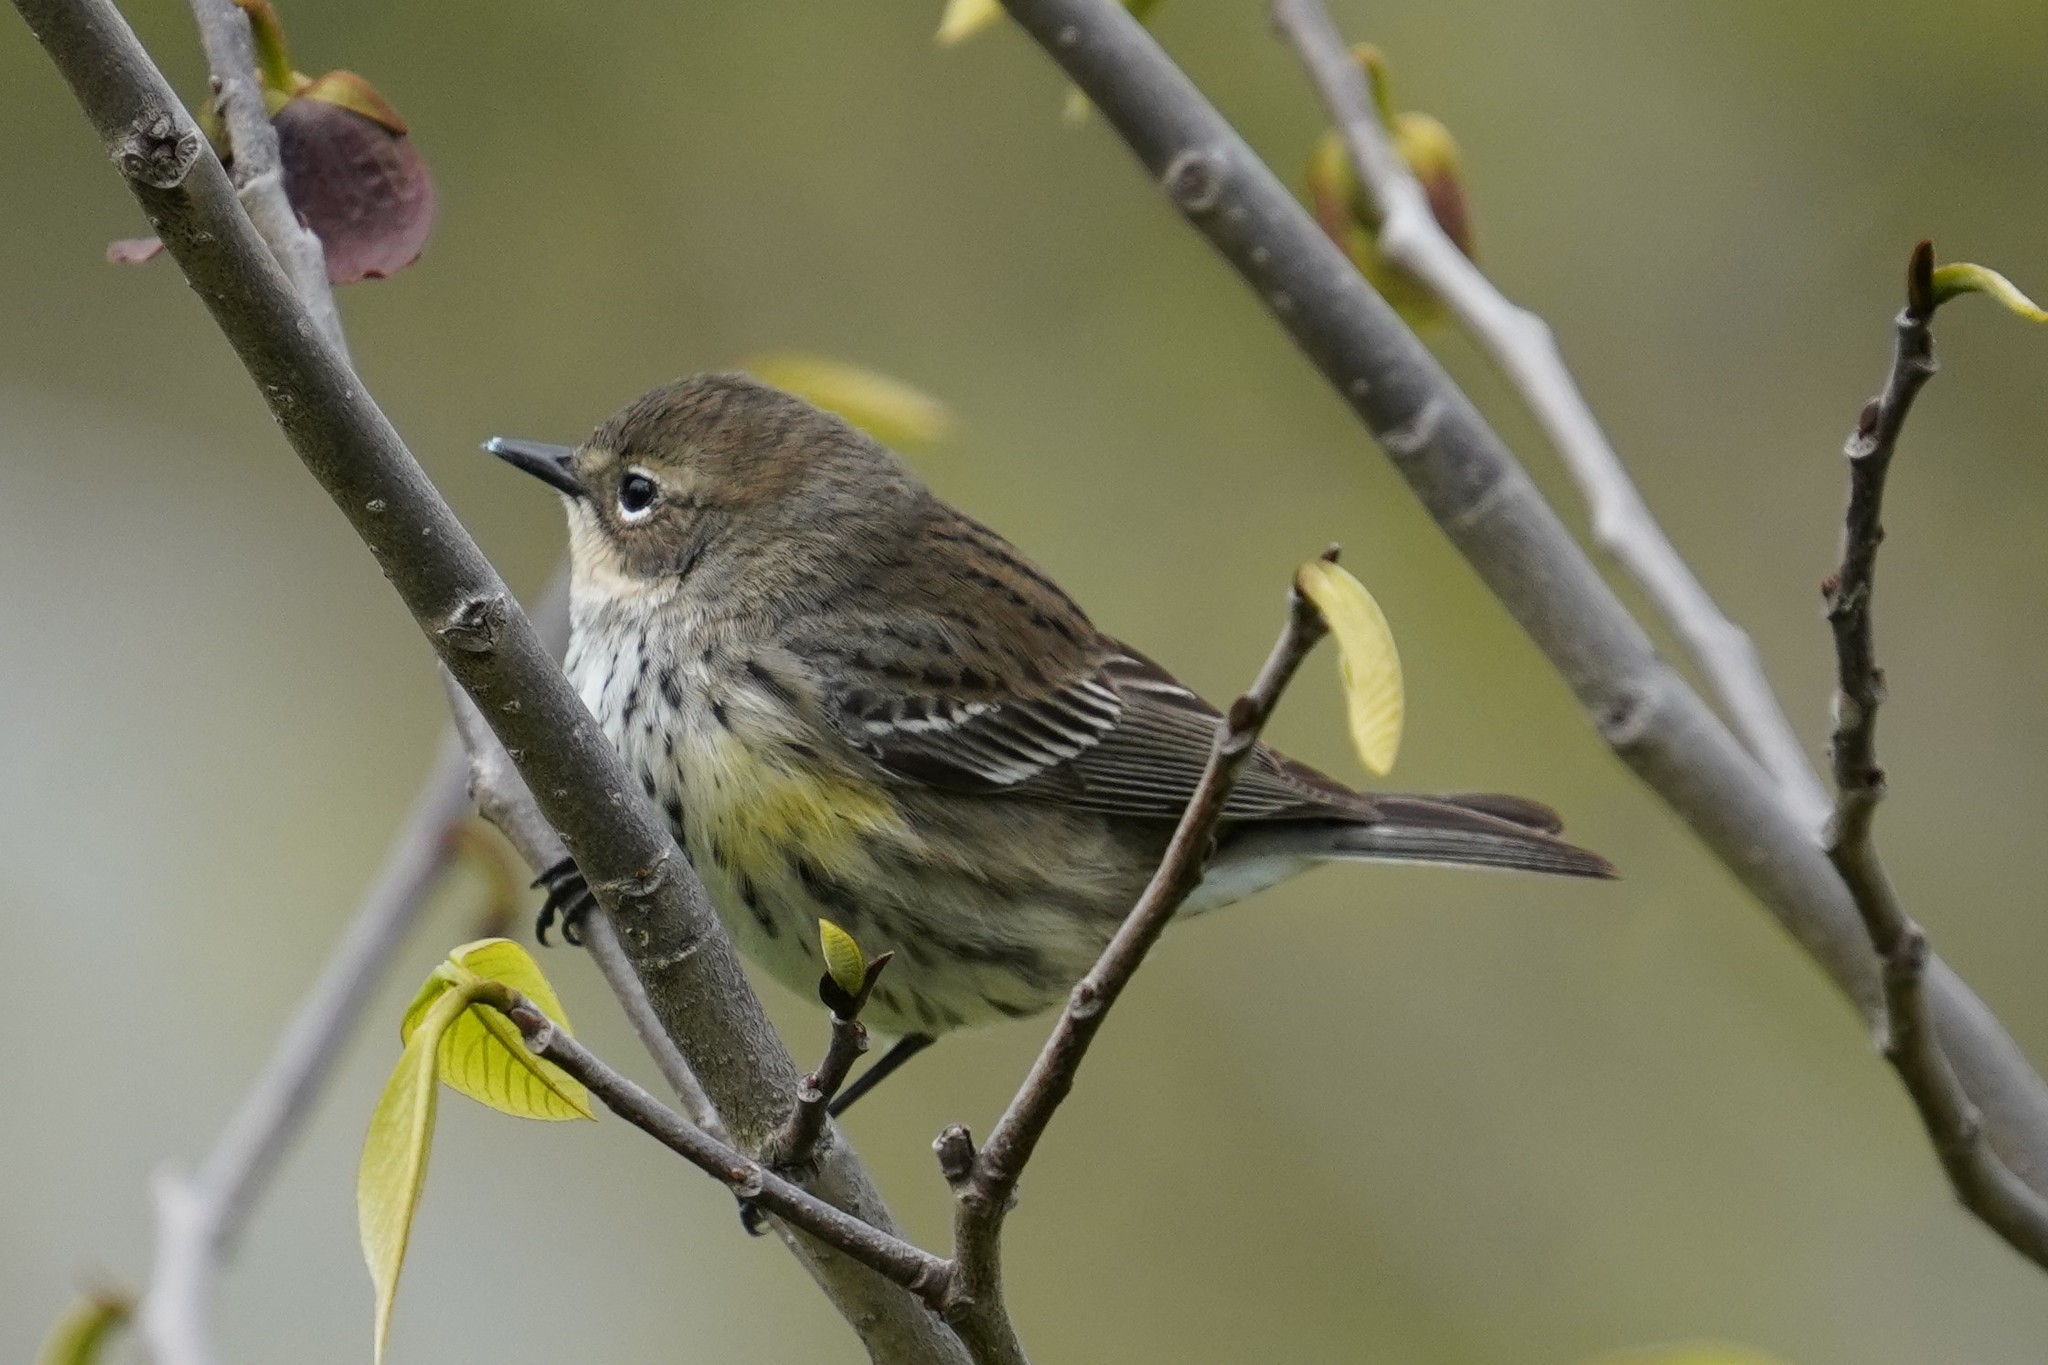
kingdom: Animalia
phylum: Chordata
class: Aves
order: Passeriformes
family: Parulidae
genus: Setophaga
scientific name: Setophaga coronata
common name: Myrtle warbler
